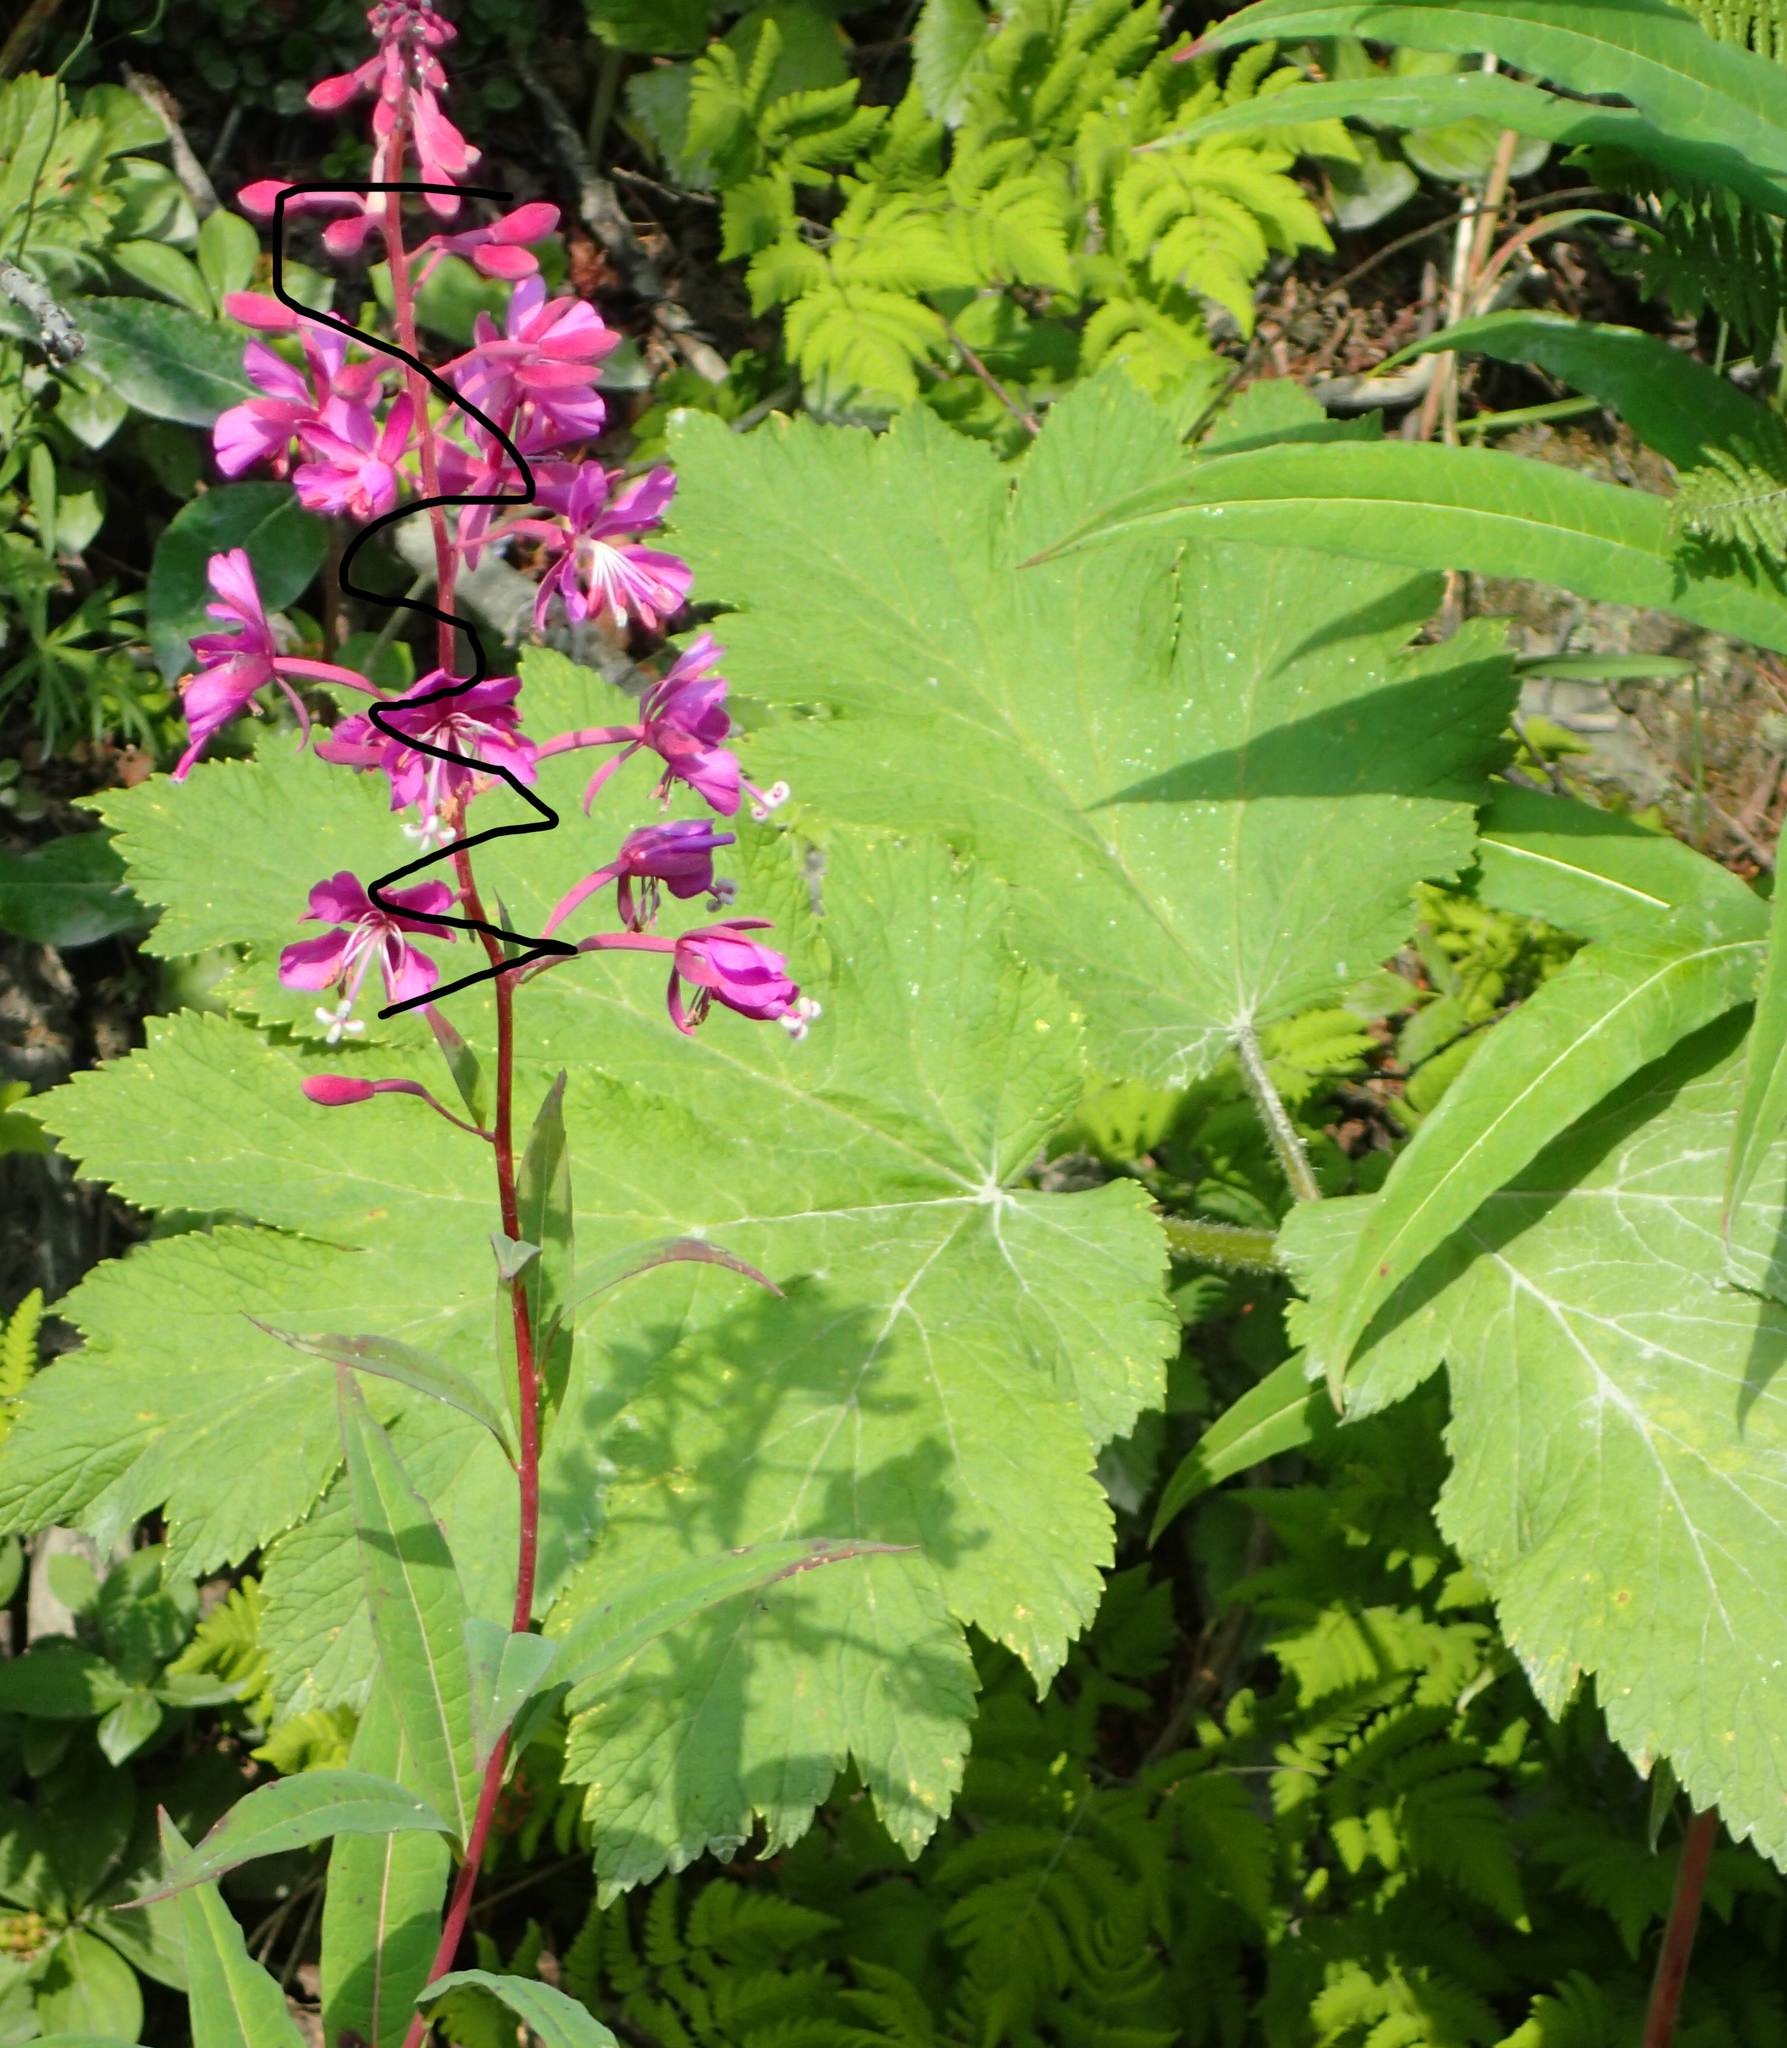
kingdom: Plantae
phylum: Tracheophyta
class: Magnoliopsida
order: Apiales
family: Apiaceae
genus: Heracleum
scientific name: Heracleum maximum
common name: American cow parsnip
